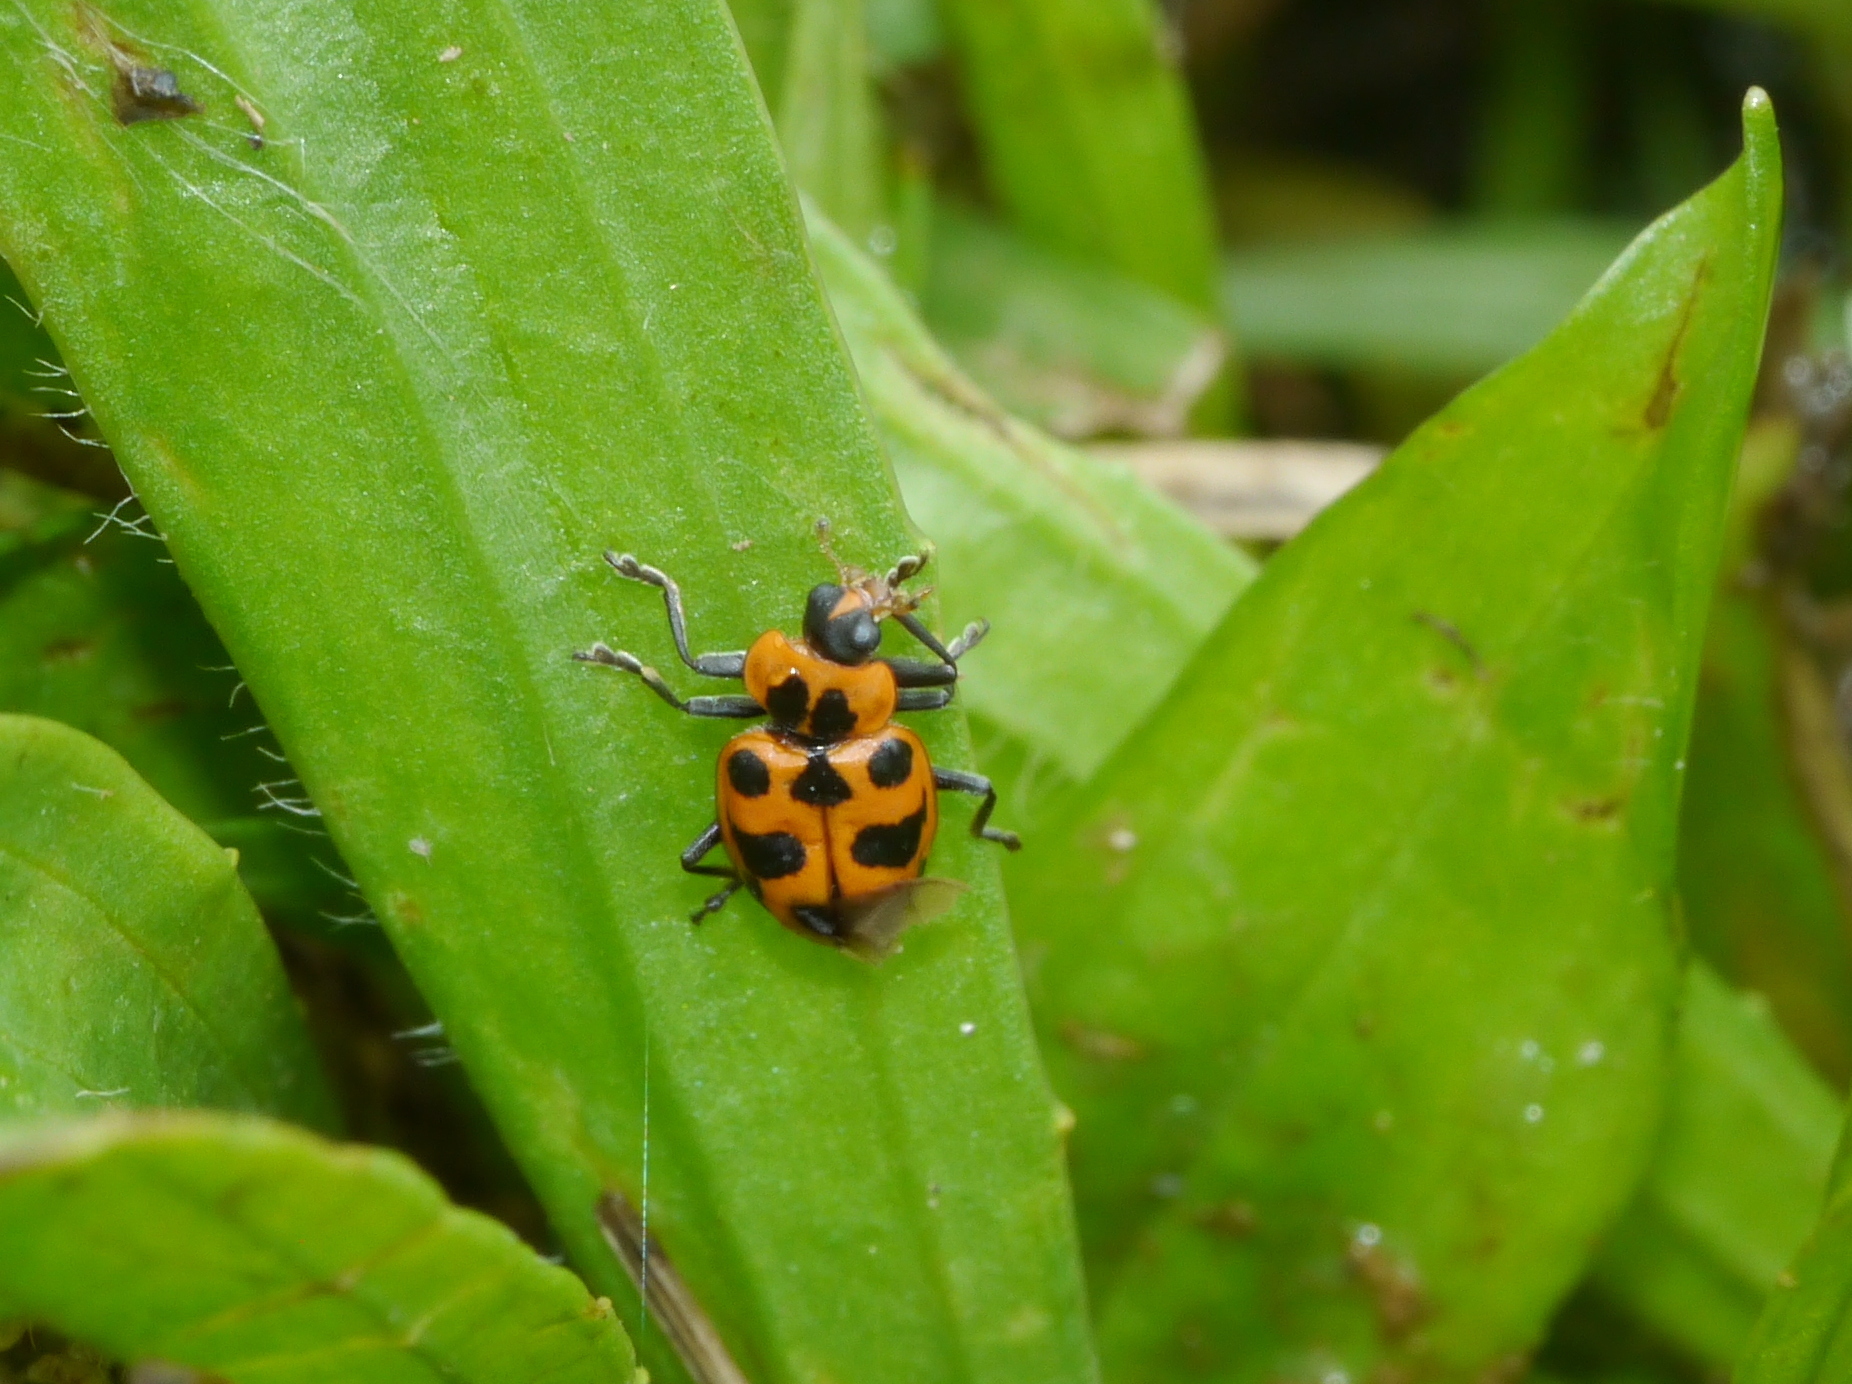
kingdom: Animalia
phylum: Arthropoda
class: Insecta
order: Coleoptera
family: Coccinellidae
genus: Coleomegilla
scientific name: Coleomegilla maculata
